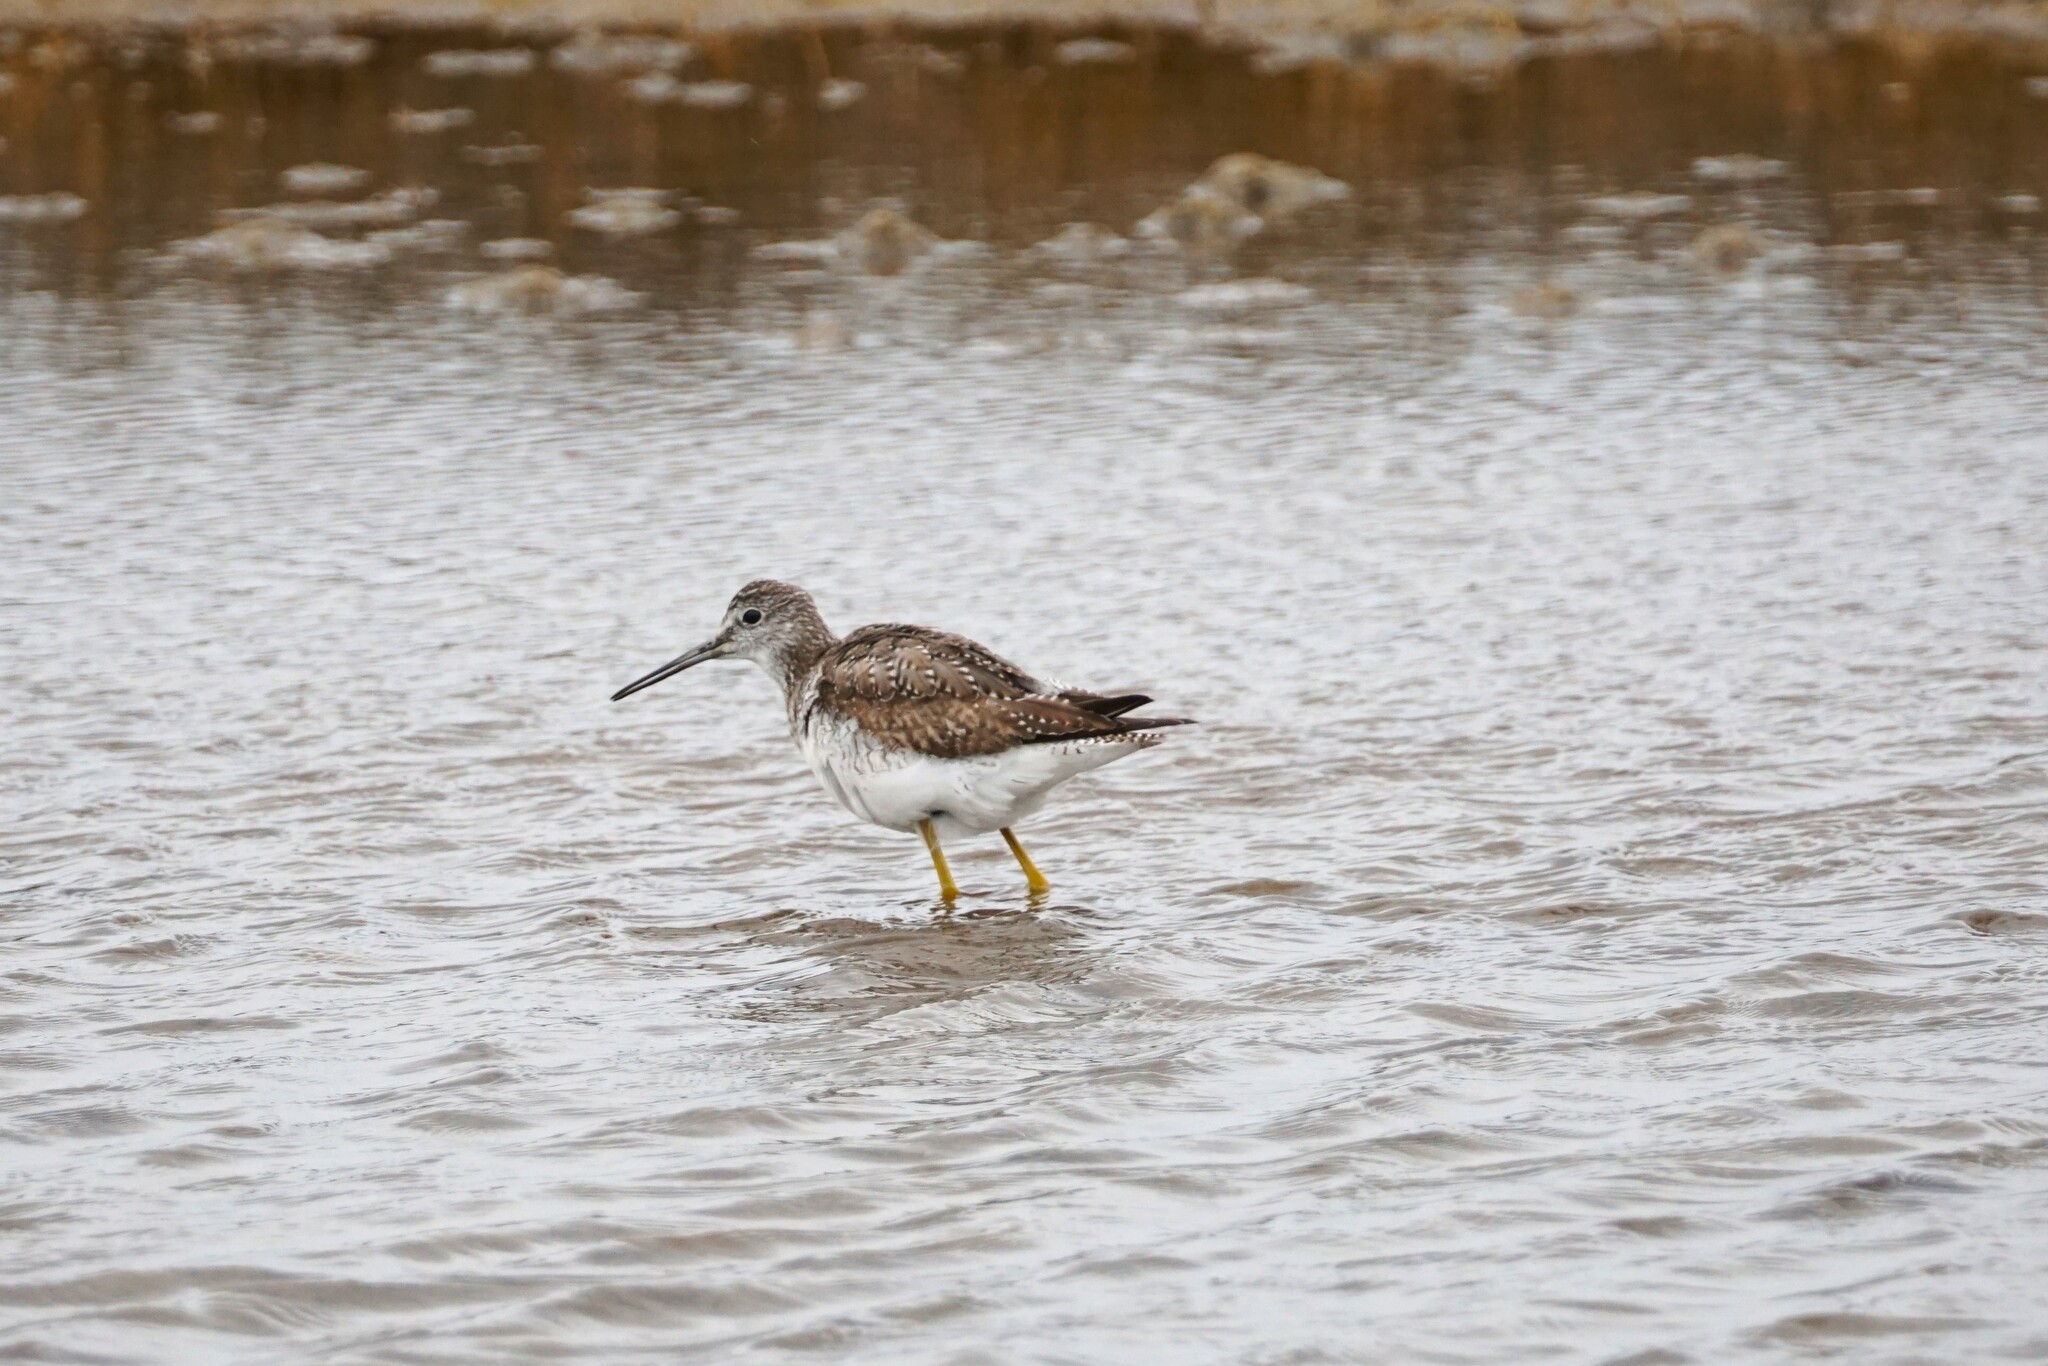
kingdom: Animalia
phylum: Chordata
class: Aves
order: Charadriiformes
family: Scolopacidae
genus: Tringa
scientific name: Tringa melanoleuca
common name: Greater yellowlegs
